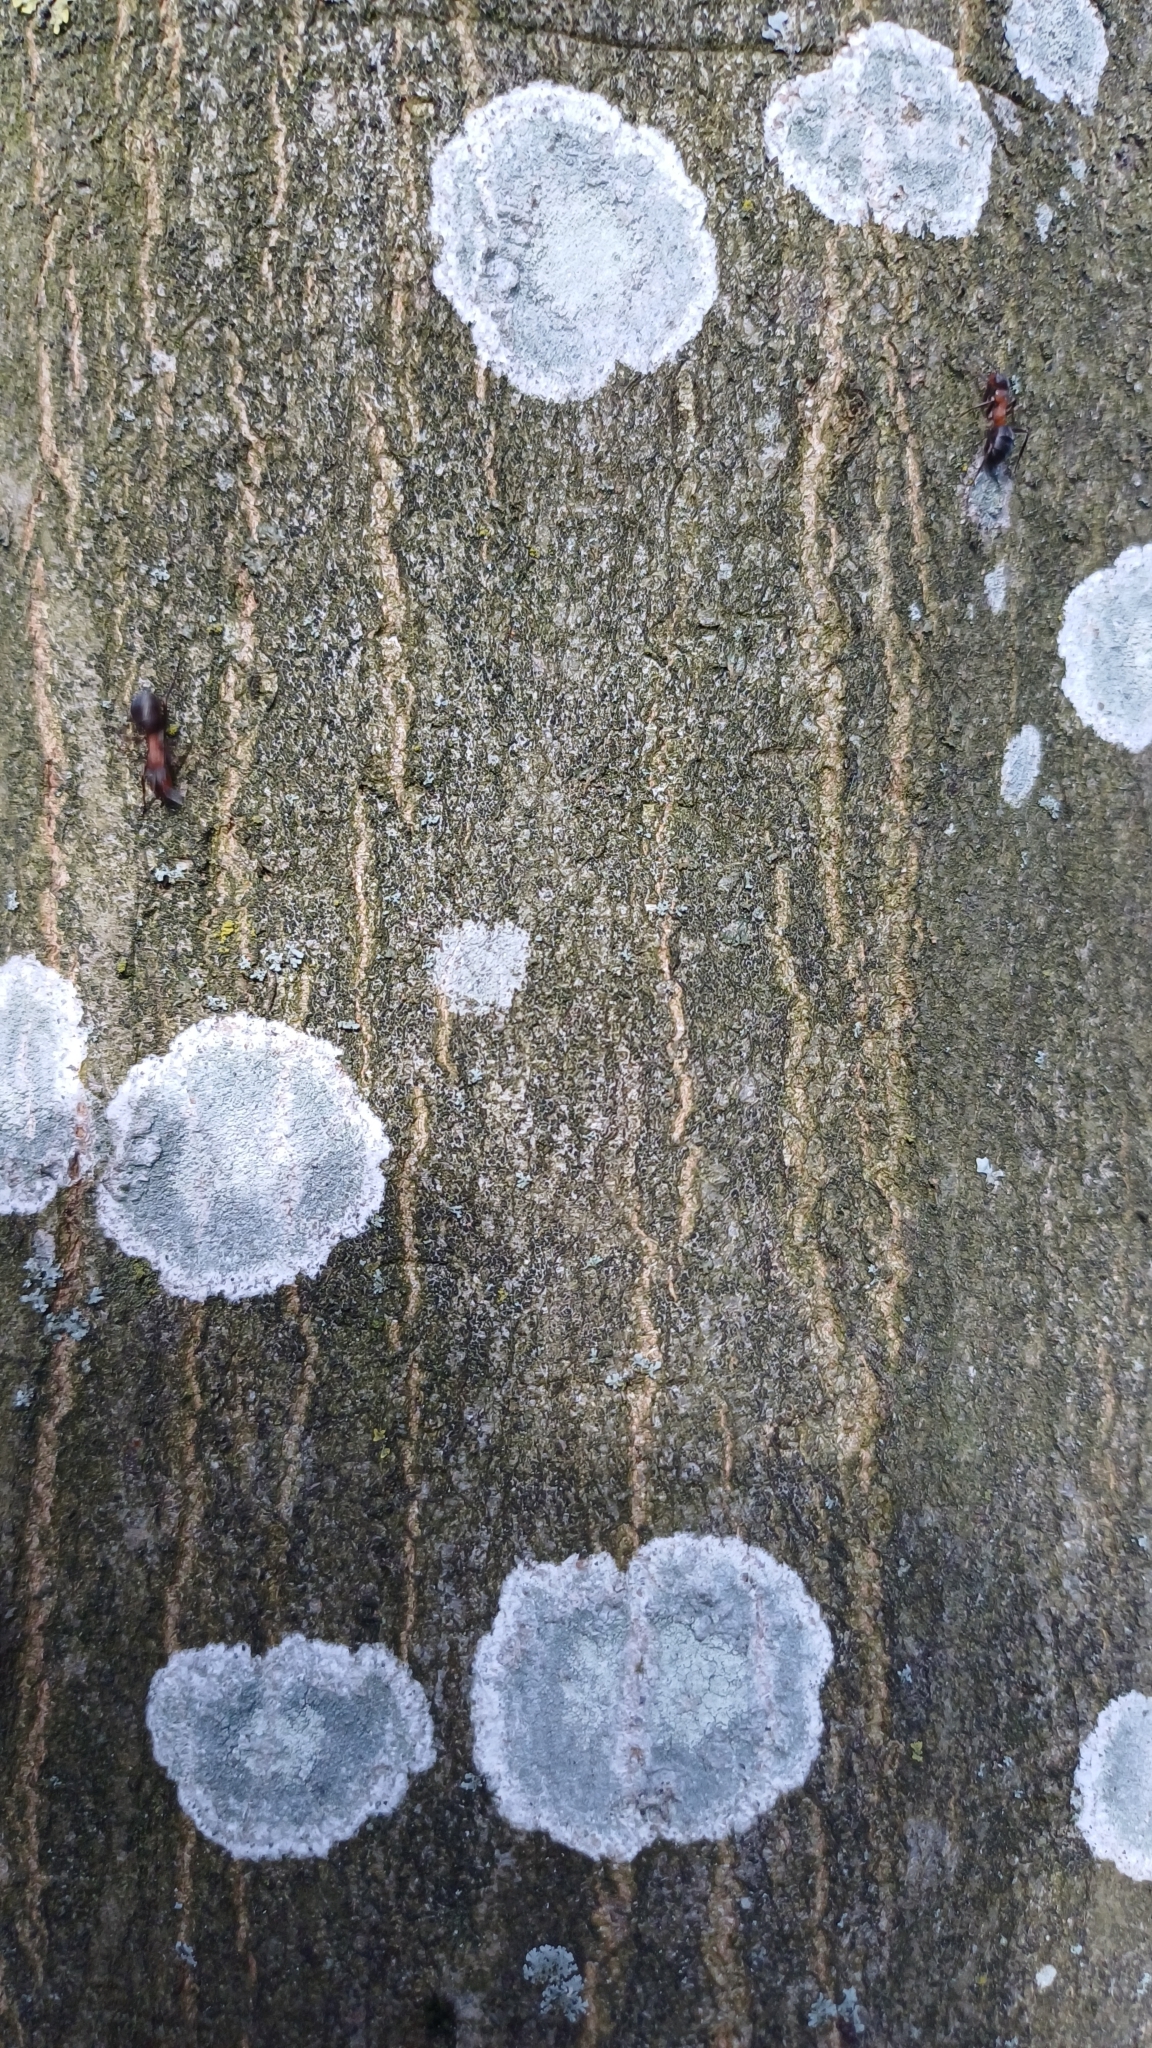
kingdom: Fungi
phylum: Ascomycota
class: Lecanoromycetes
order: Ostropales
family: Phlyctidaceae
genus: Phlyctis
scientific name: Phlyctis argena
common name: Whitewash lichen
